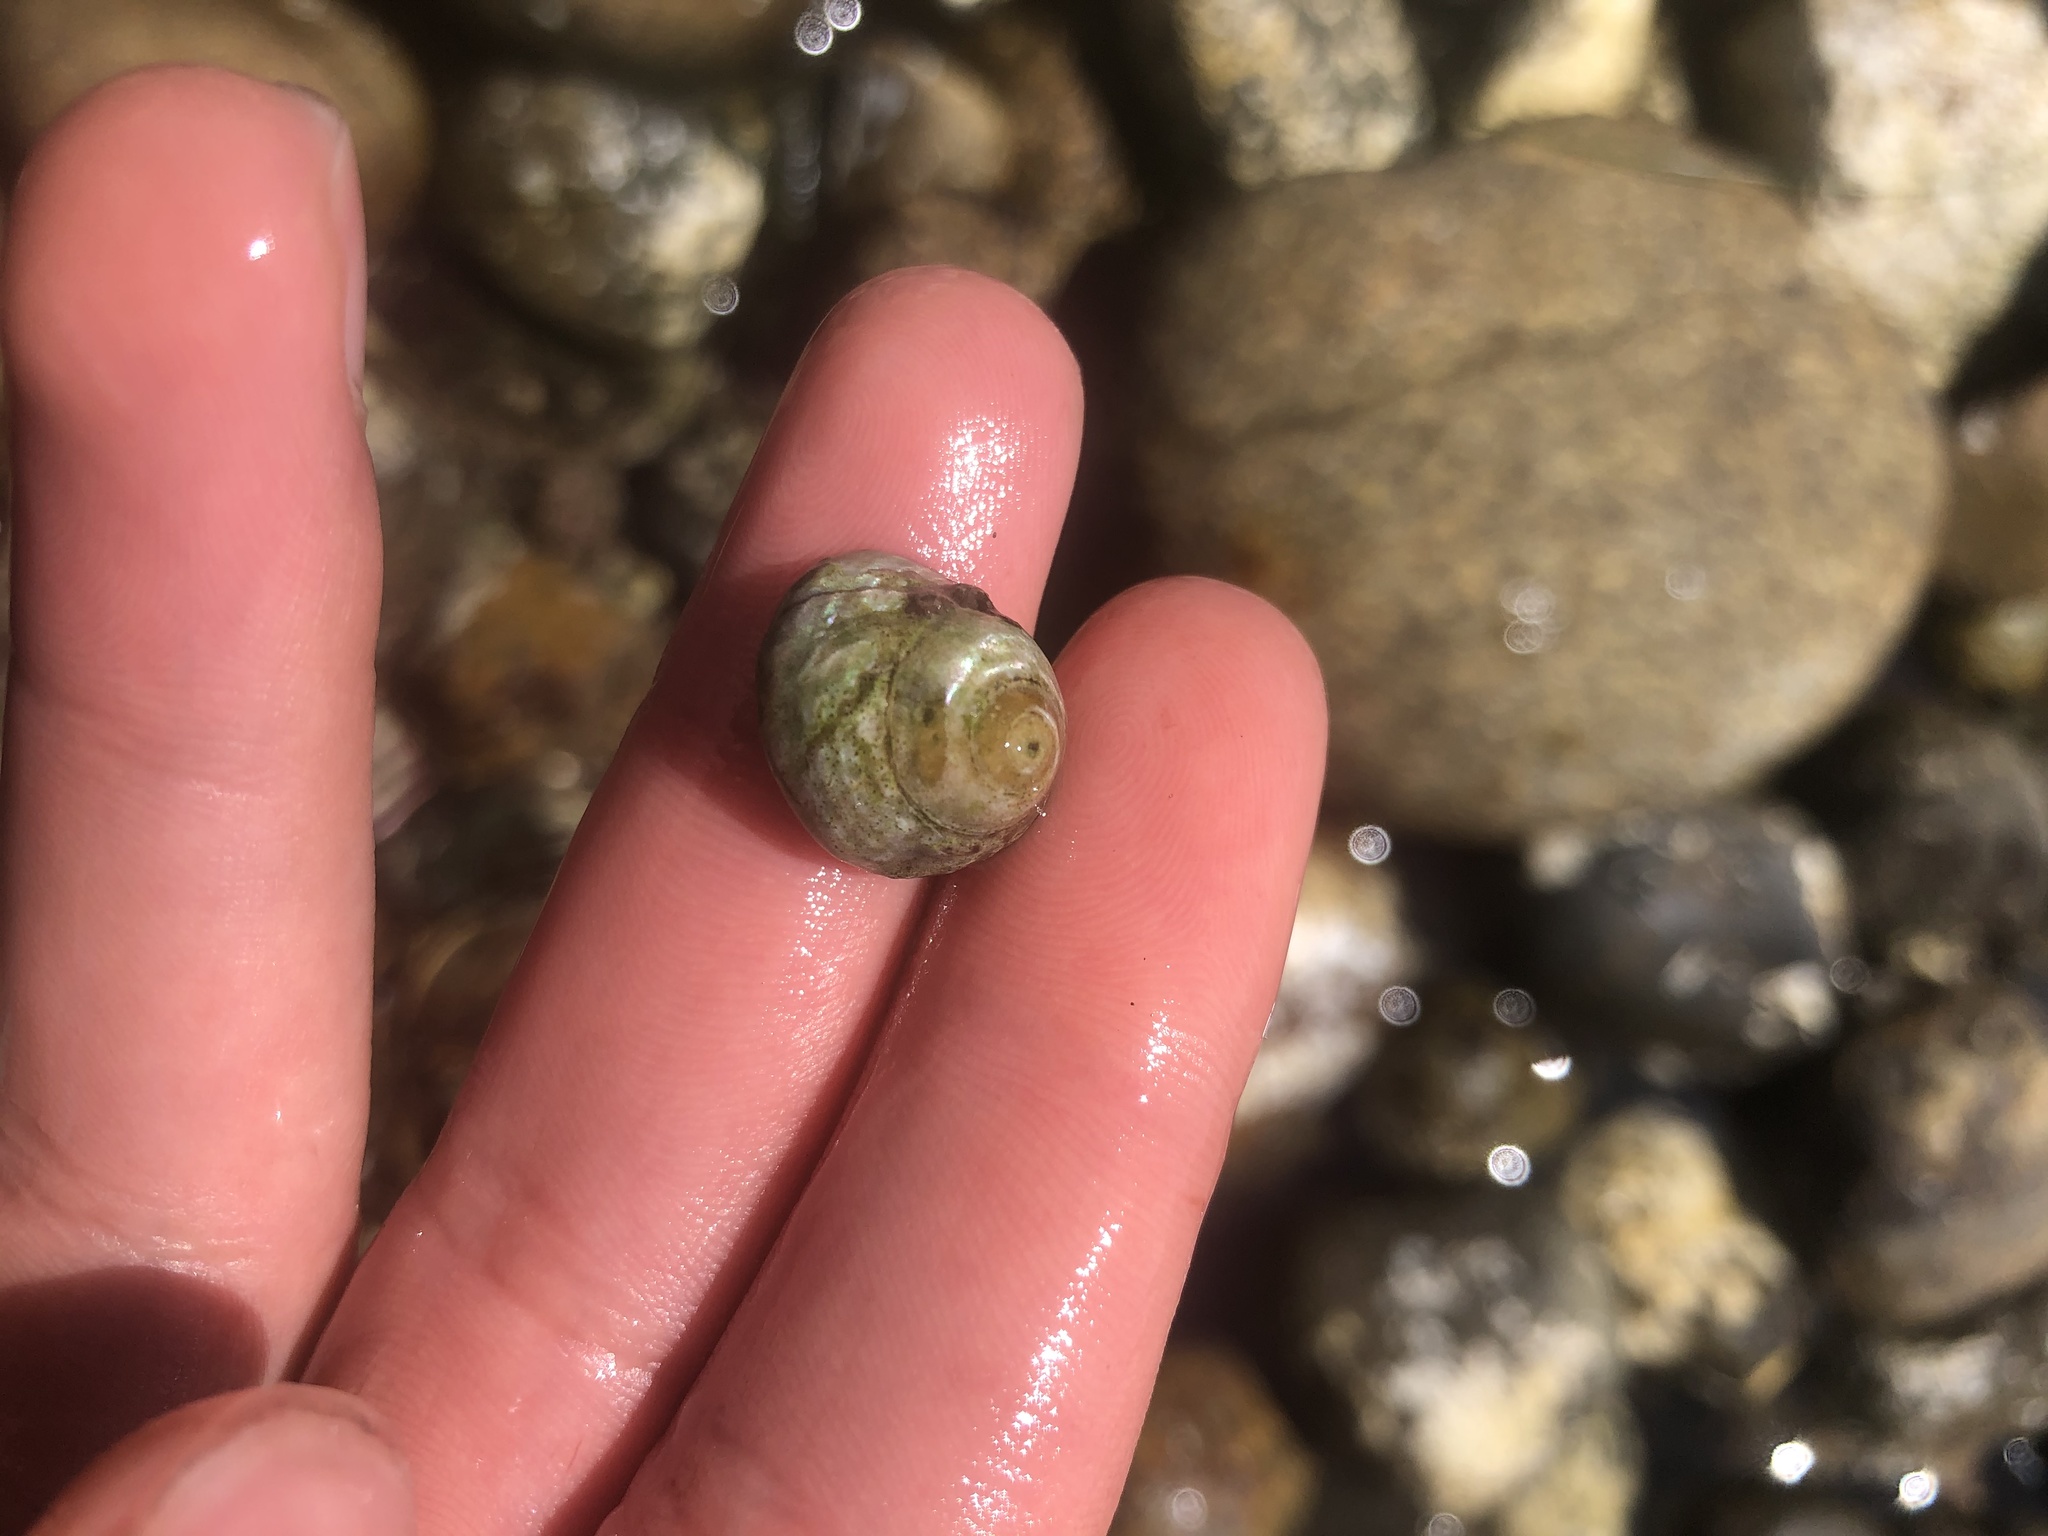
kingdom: Animalia
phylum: Mollusca
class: Gastropoda
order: Trochida
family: Tegulidae
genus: Tegula
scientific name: Tegula eiseni
